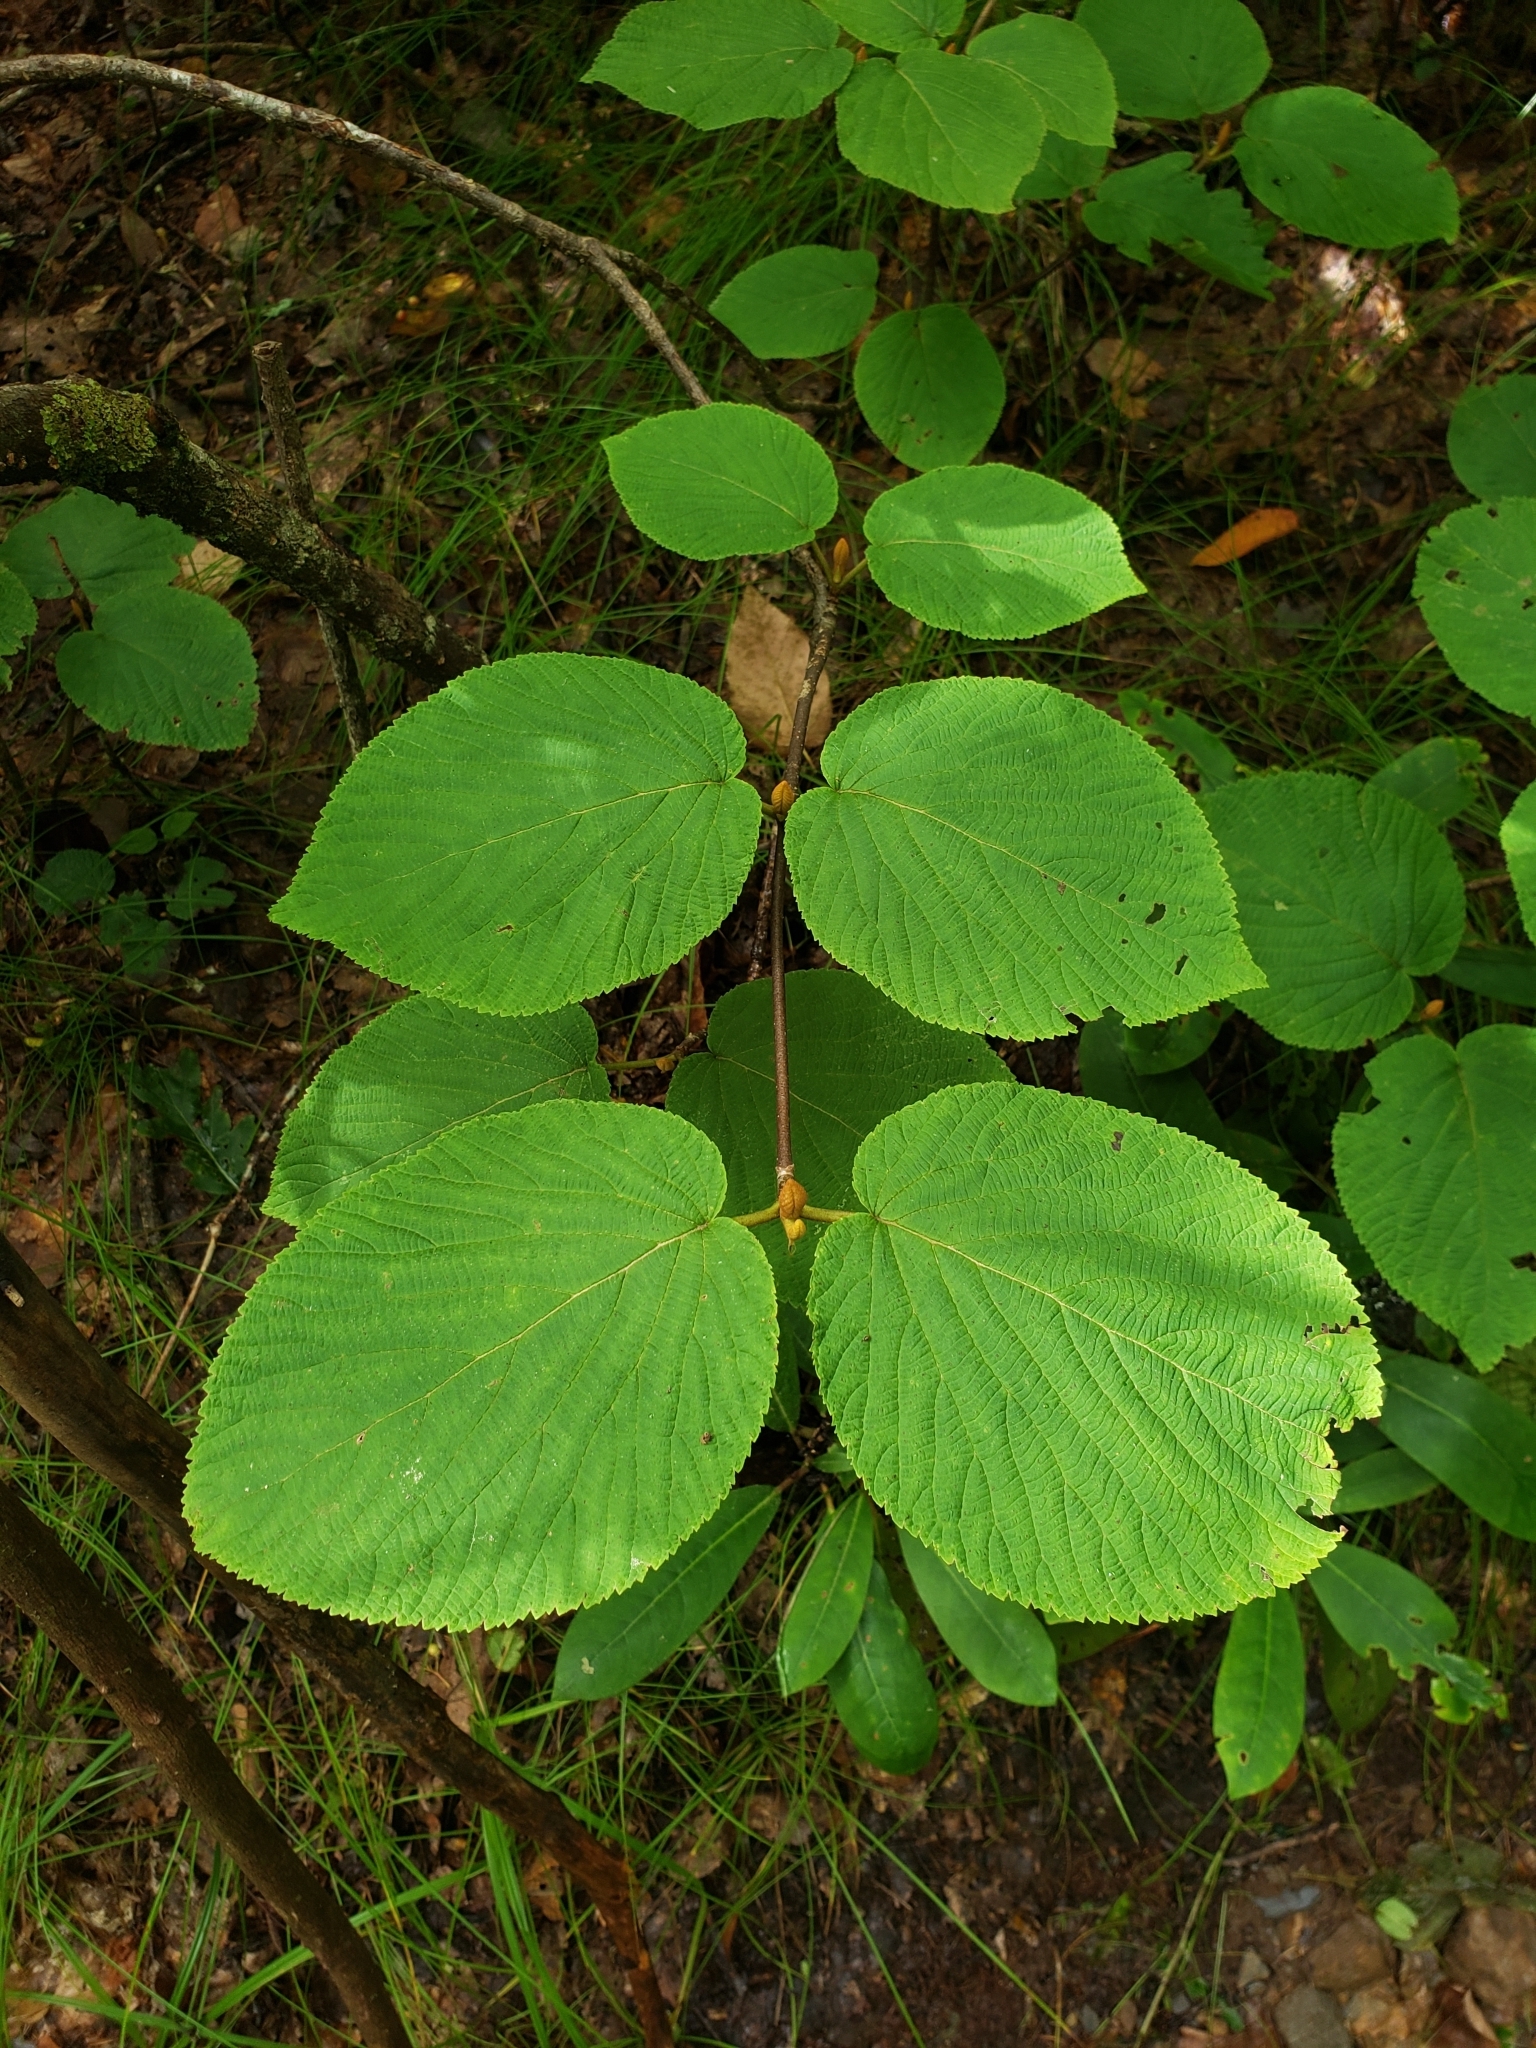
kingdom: Plantae
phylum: Tracheophyta
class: Magnoliopsida
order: Dipsacales
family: Viburnaceae
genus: Viburnum
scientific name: Viburnum lantanoides
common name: Hobblebush
